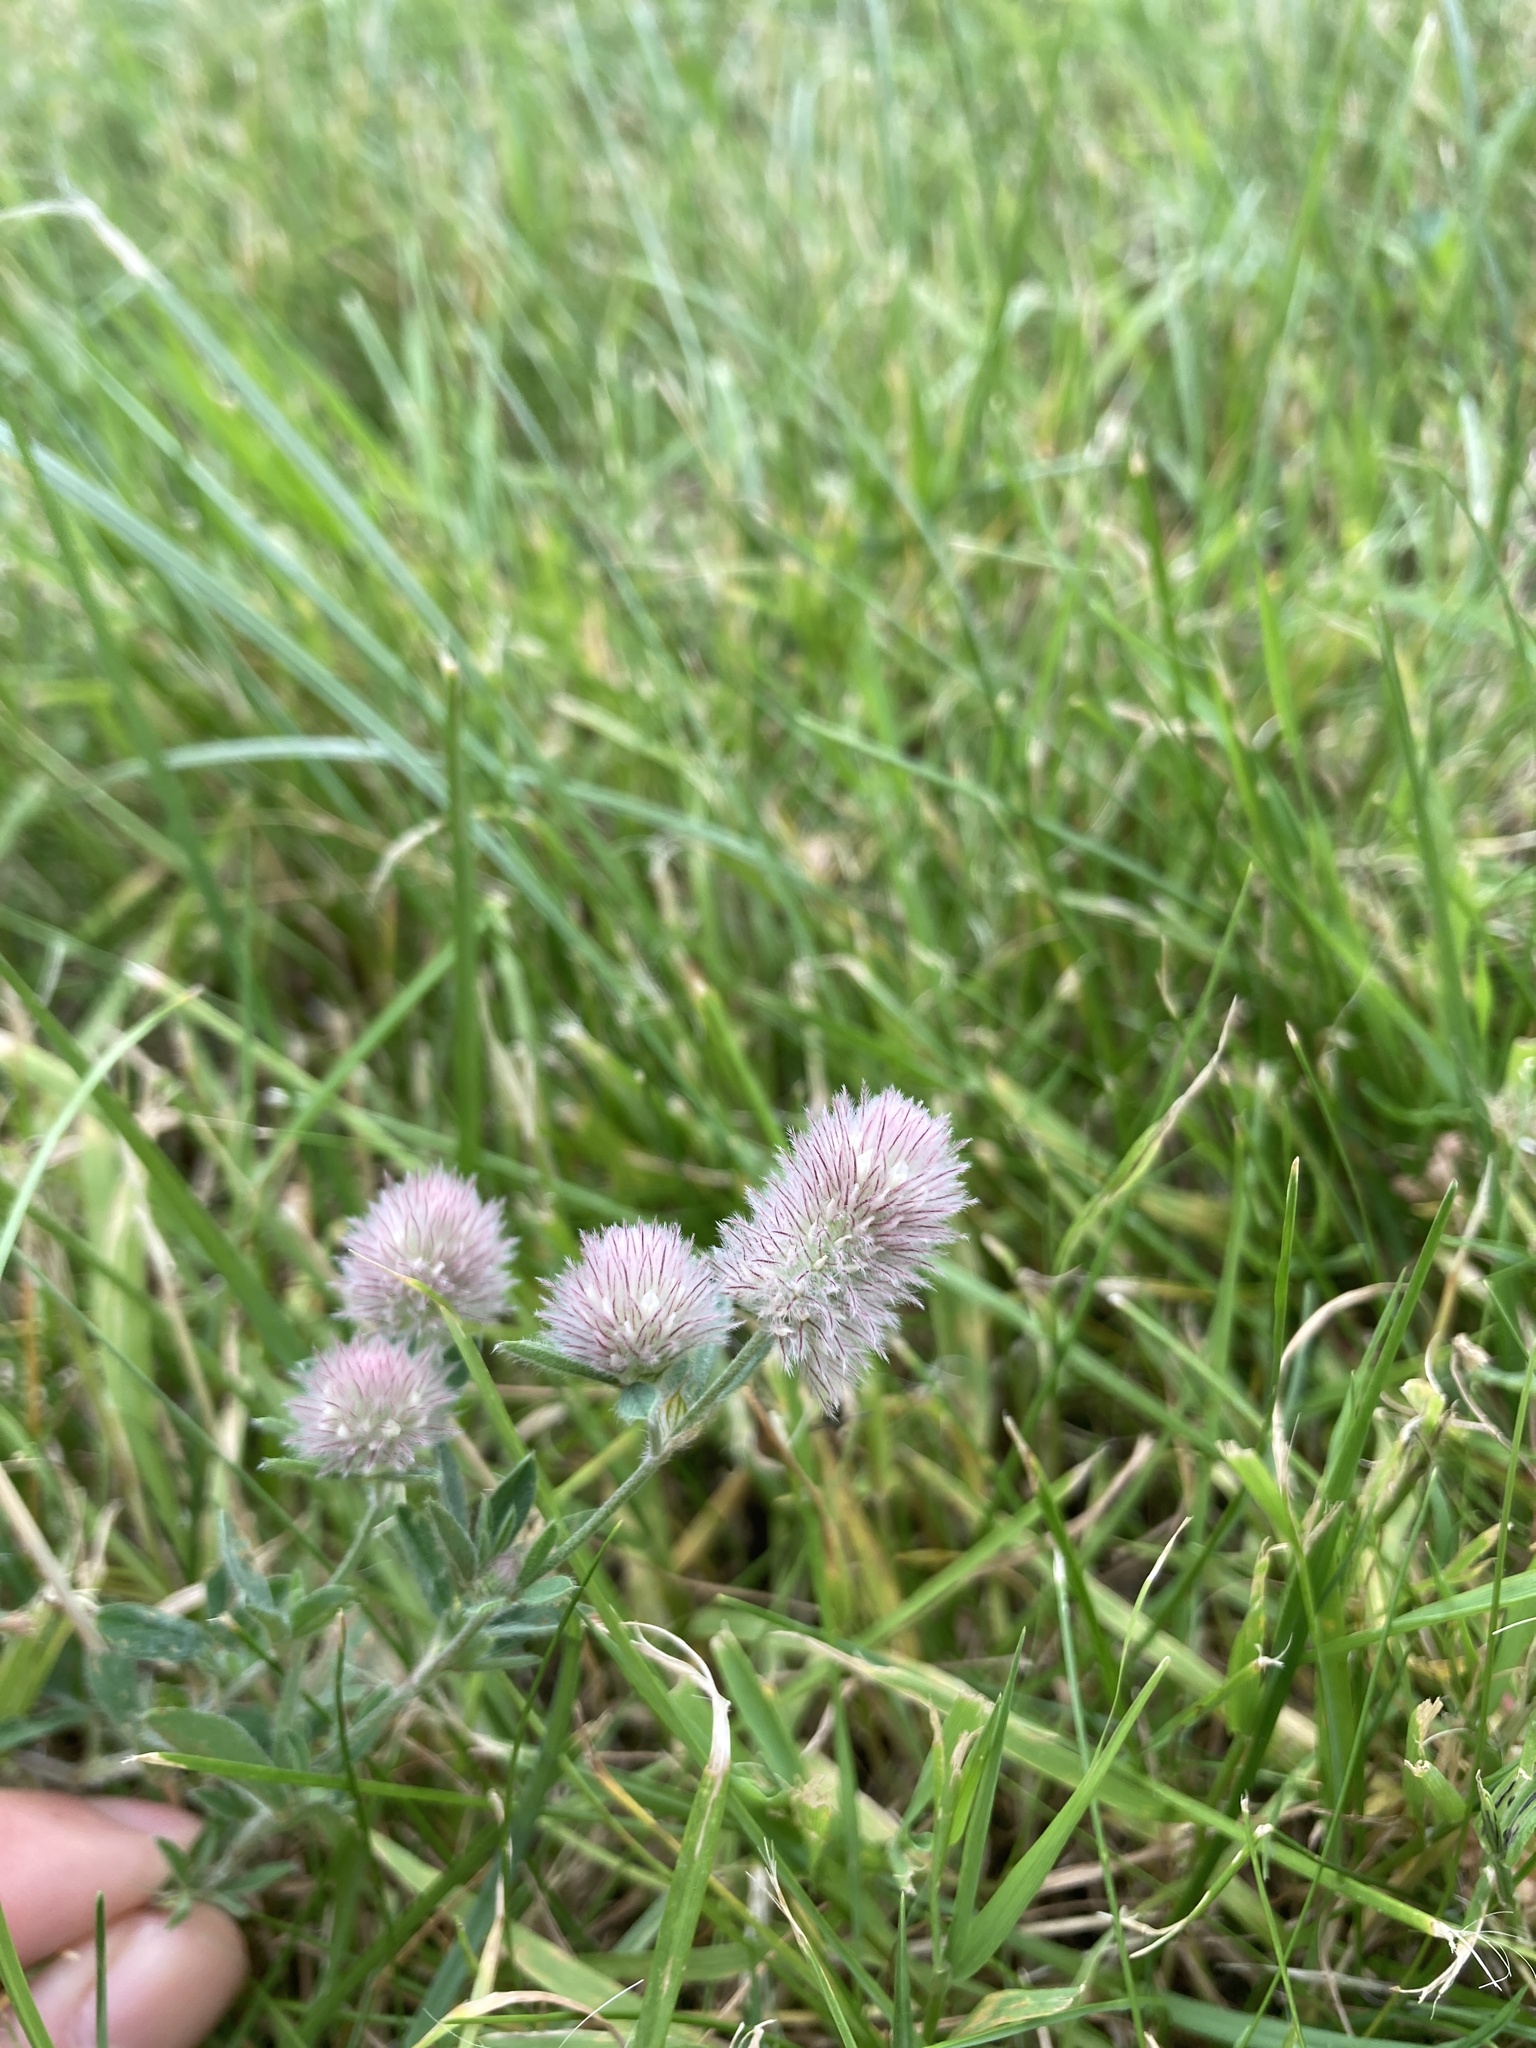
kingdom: Plantae
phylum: Tracheophyta
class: Magnoliopsida
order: Fabales
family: Fabaceae
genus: Trifolium
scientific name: Trifolium arvense
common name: Hare's-foot clover
